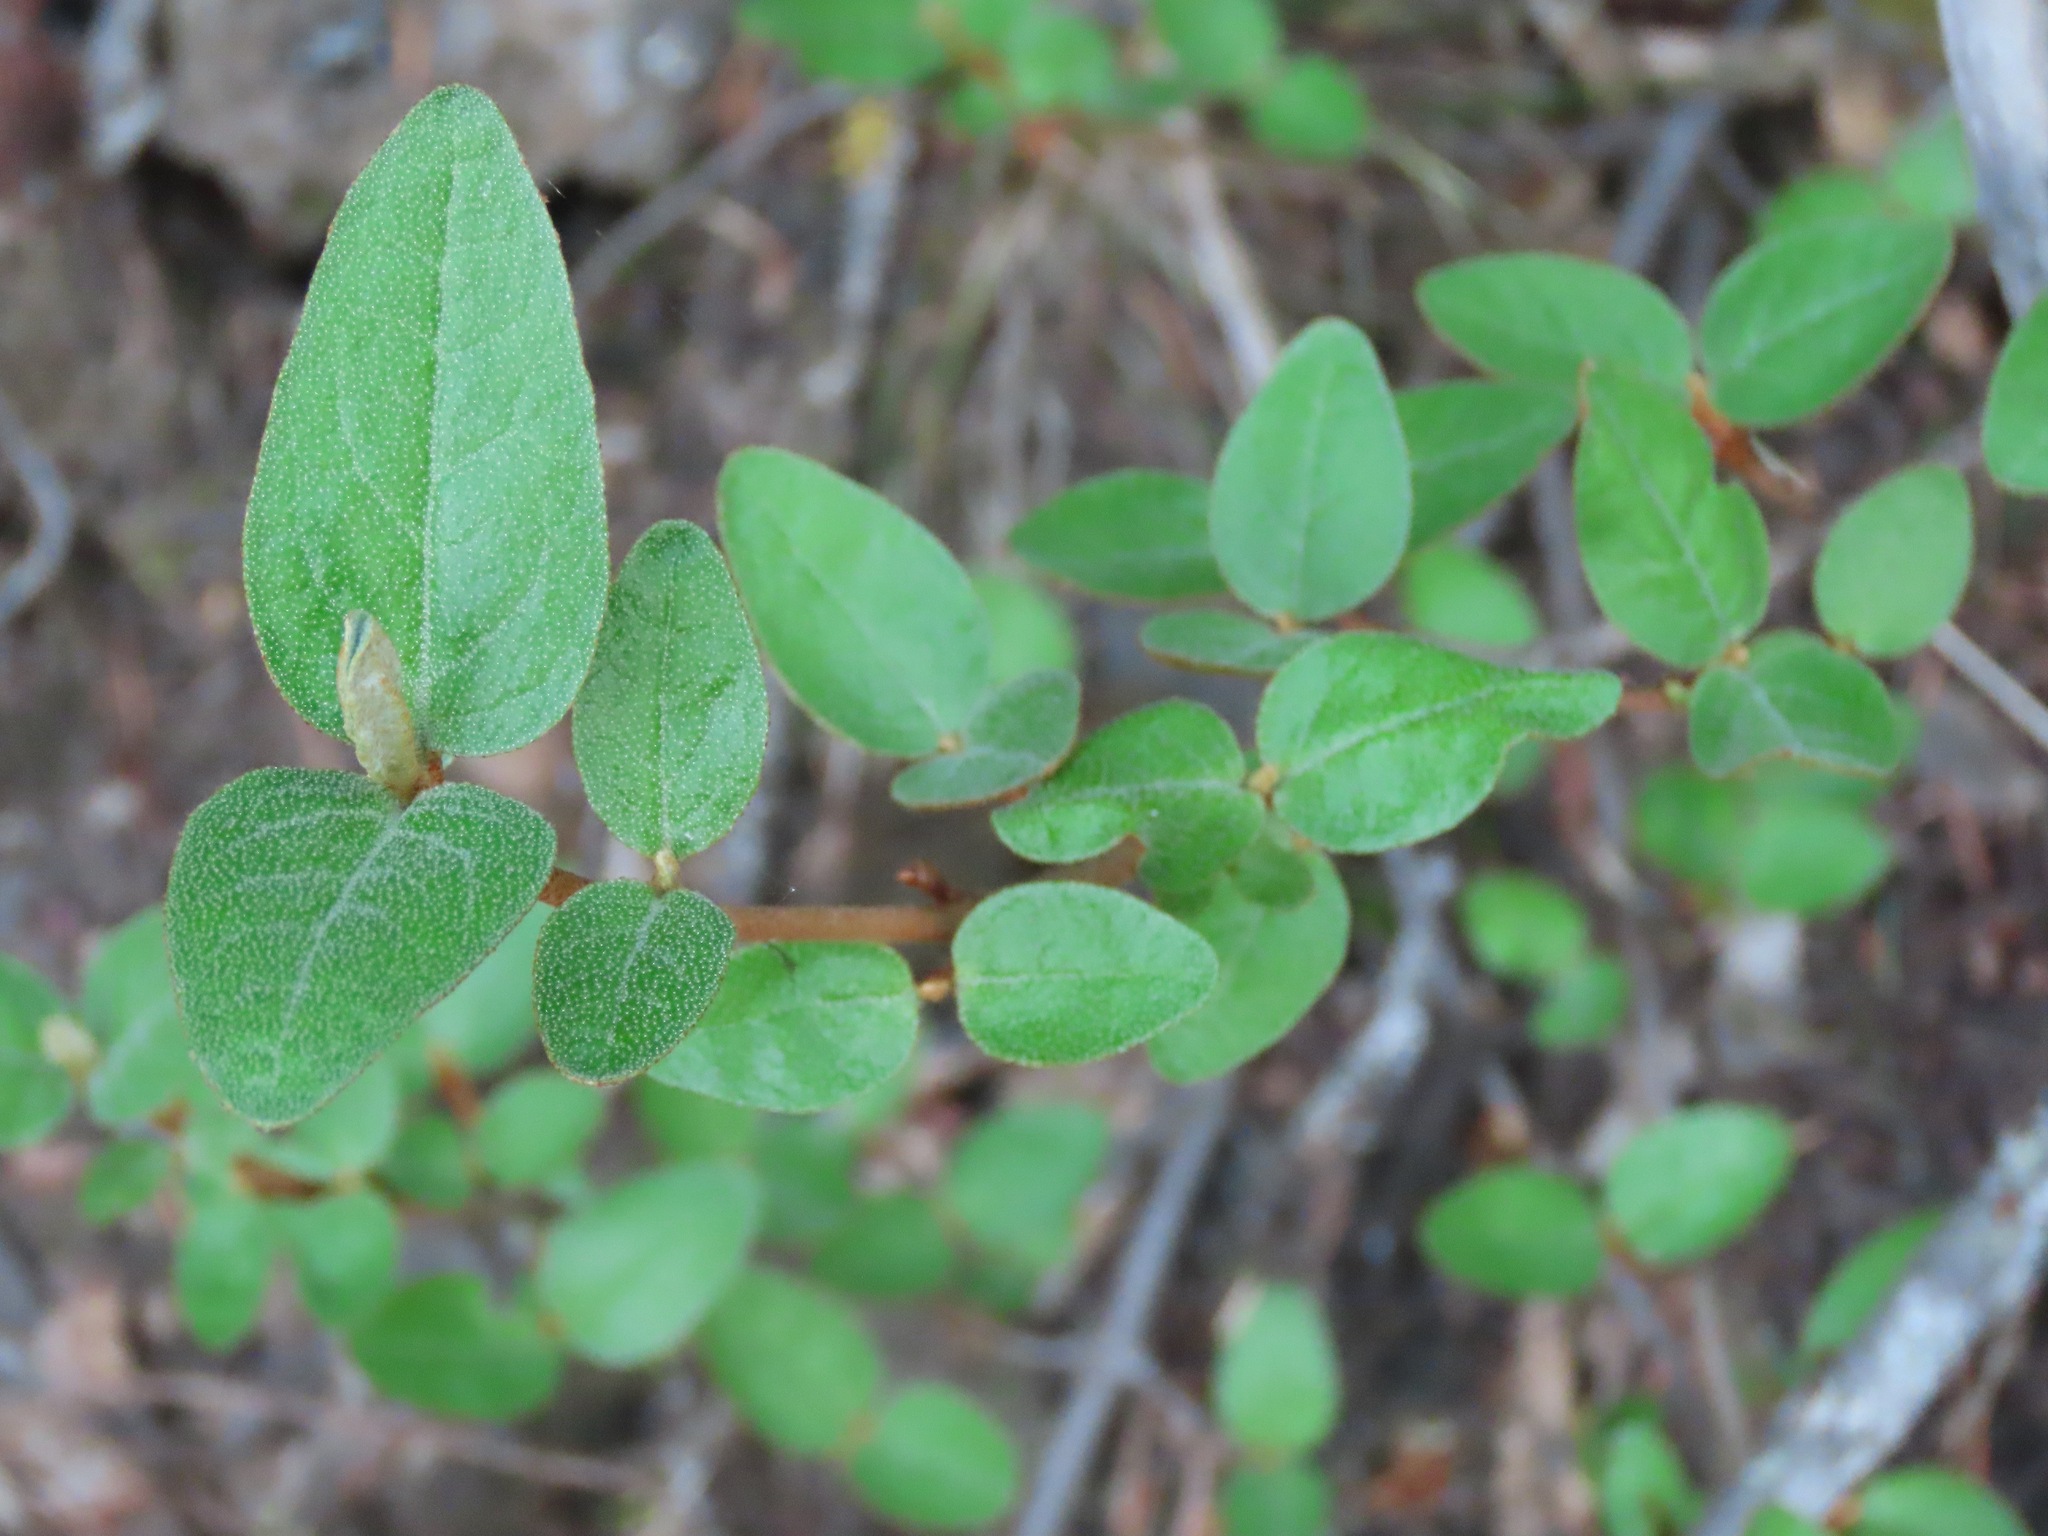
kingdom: Plantae
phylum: Tracheophyta
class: Magnoliopsida
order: Rosales
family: Elaeagnaceae
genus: Shepherdia
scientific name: Shepherdia canadensis
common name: Soapberry
